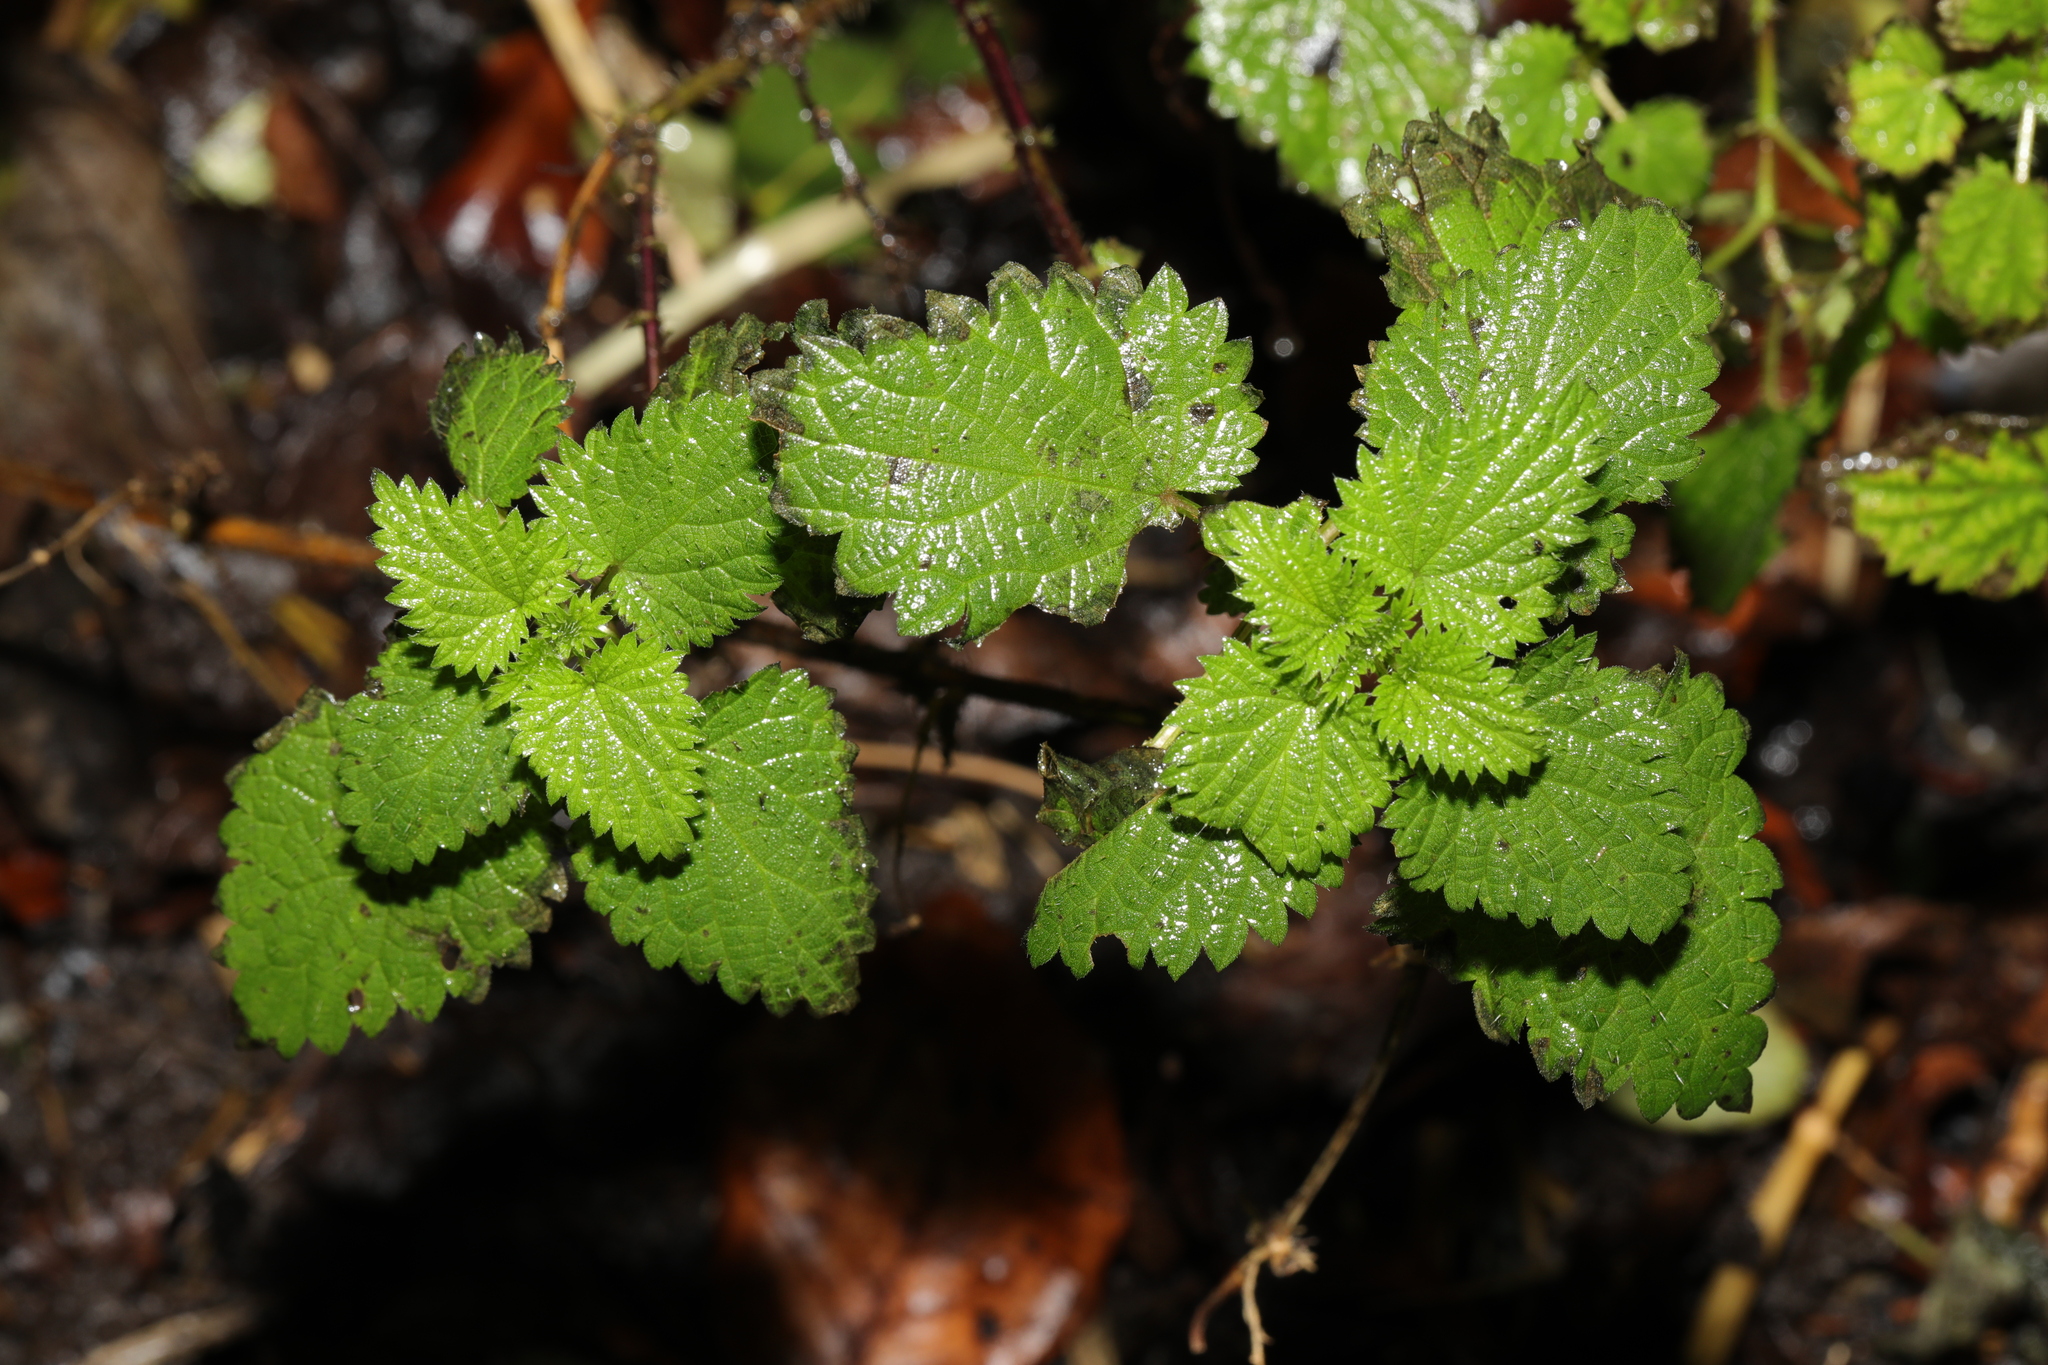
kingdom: Plantae
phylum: Tracheophyta
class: Magnoliopsida
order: Rosales
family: Urticaceae
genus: Urtica
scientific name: Urtica dioica
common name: Common nettle
